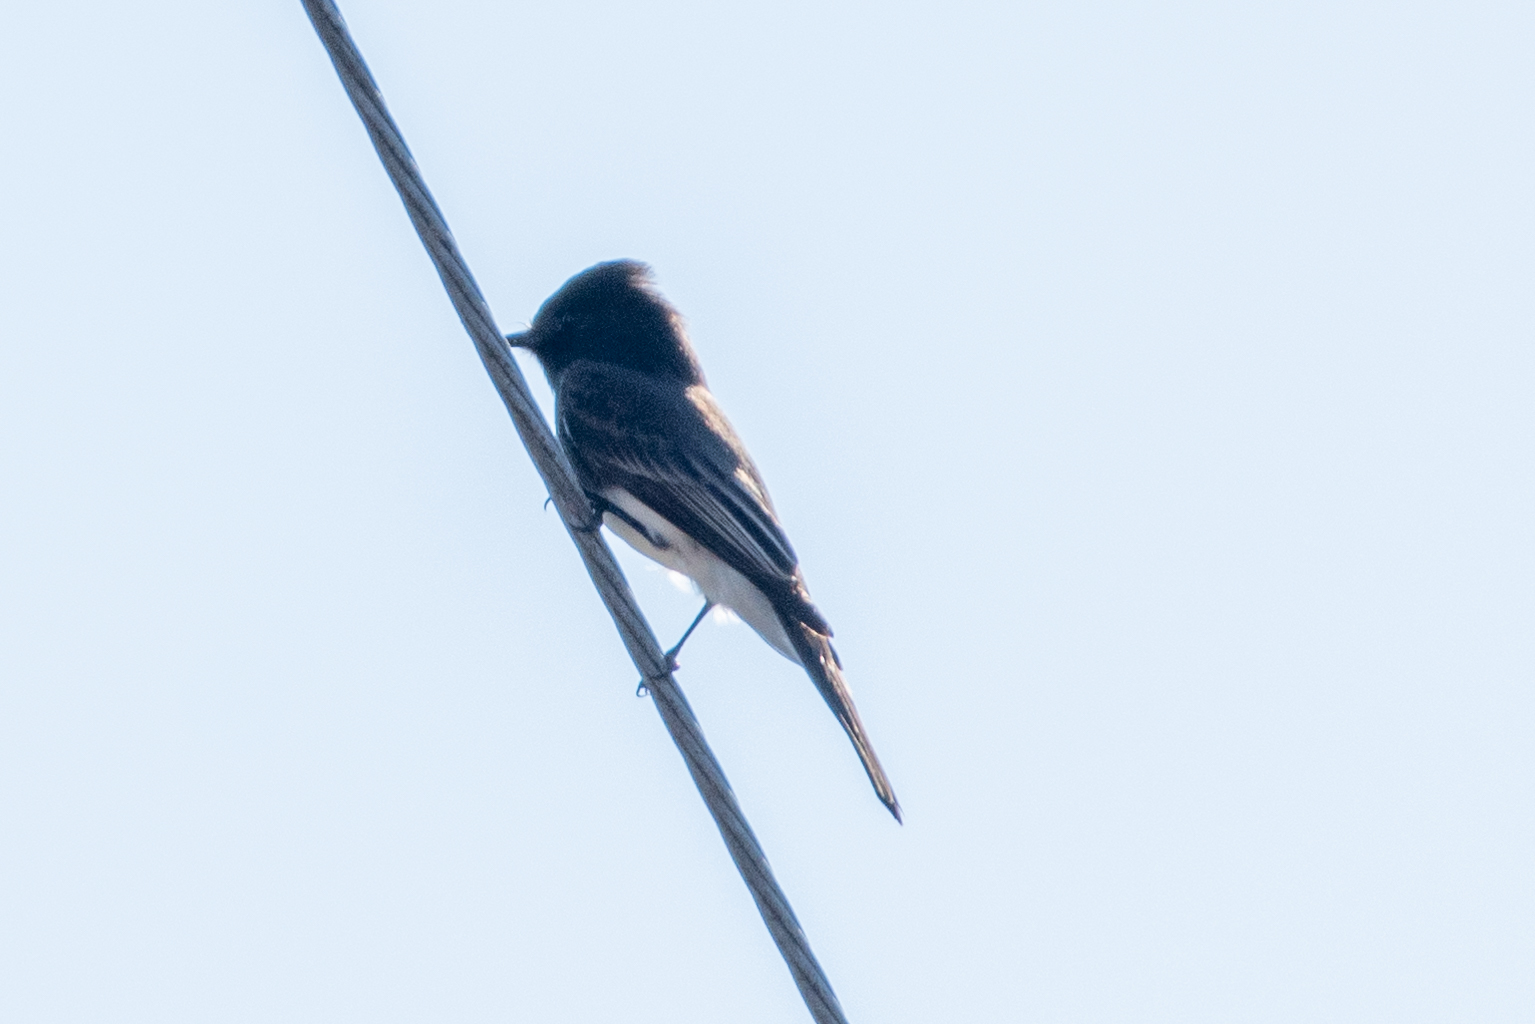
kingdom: Animalia
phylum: Chordata
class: Aves
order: Passeriformes
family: Tyrannidae
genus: Sayornis
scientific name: Sayornis nigricans
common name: Black phoebe
